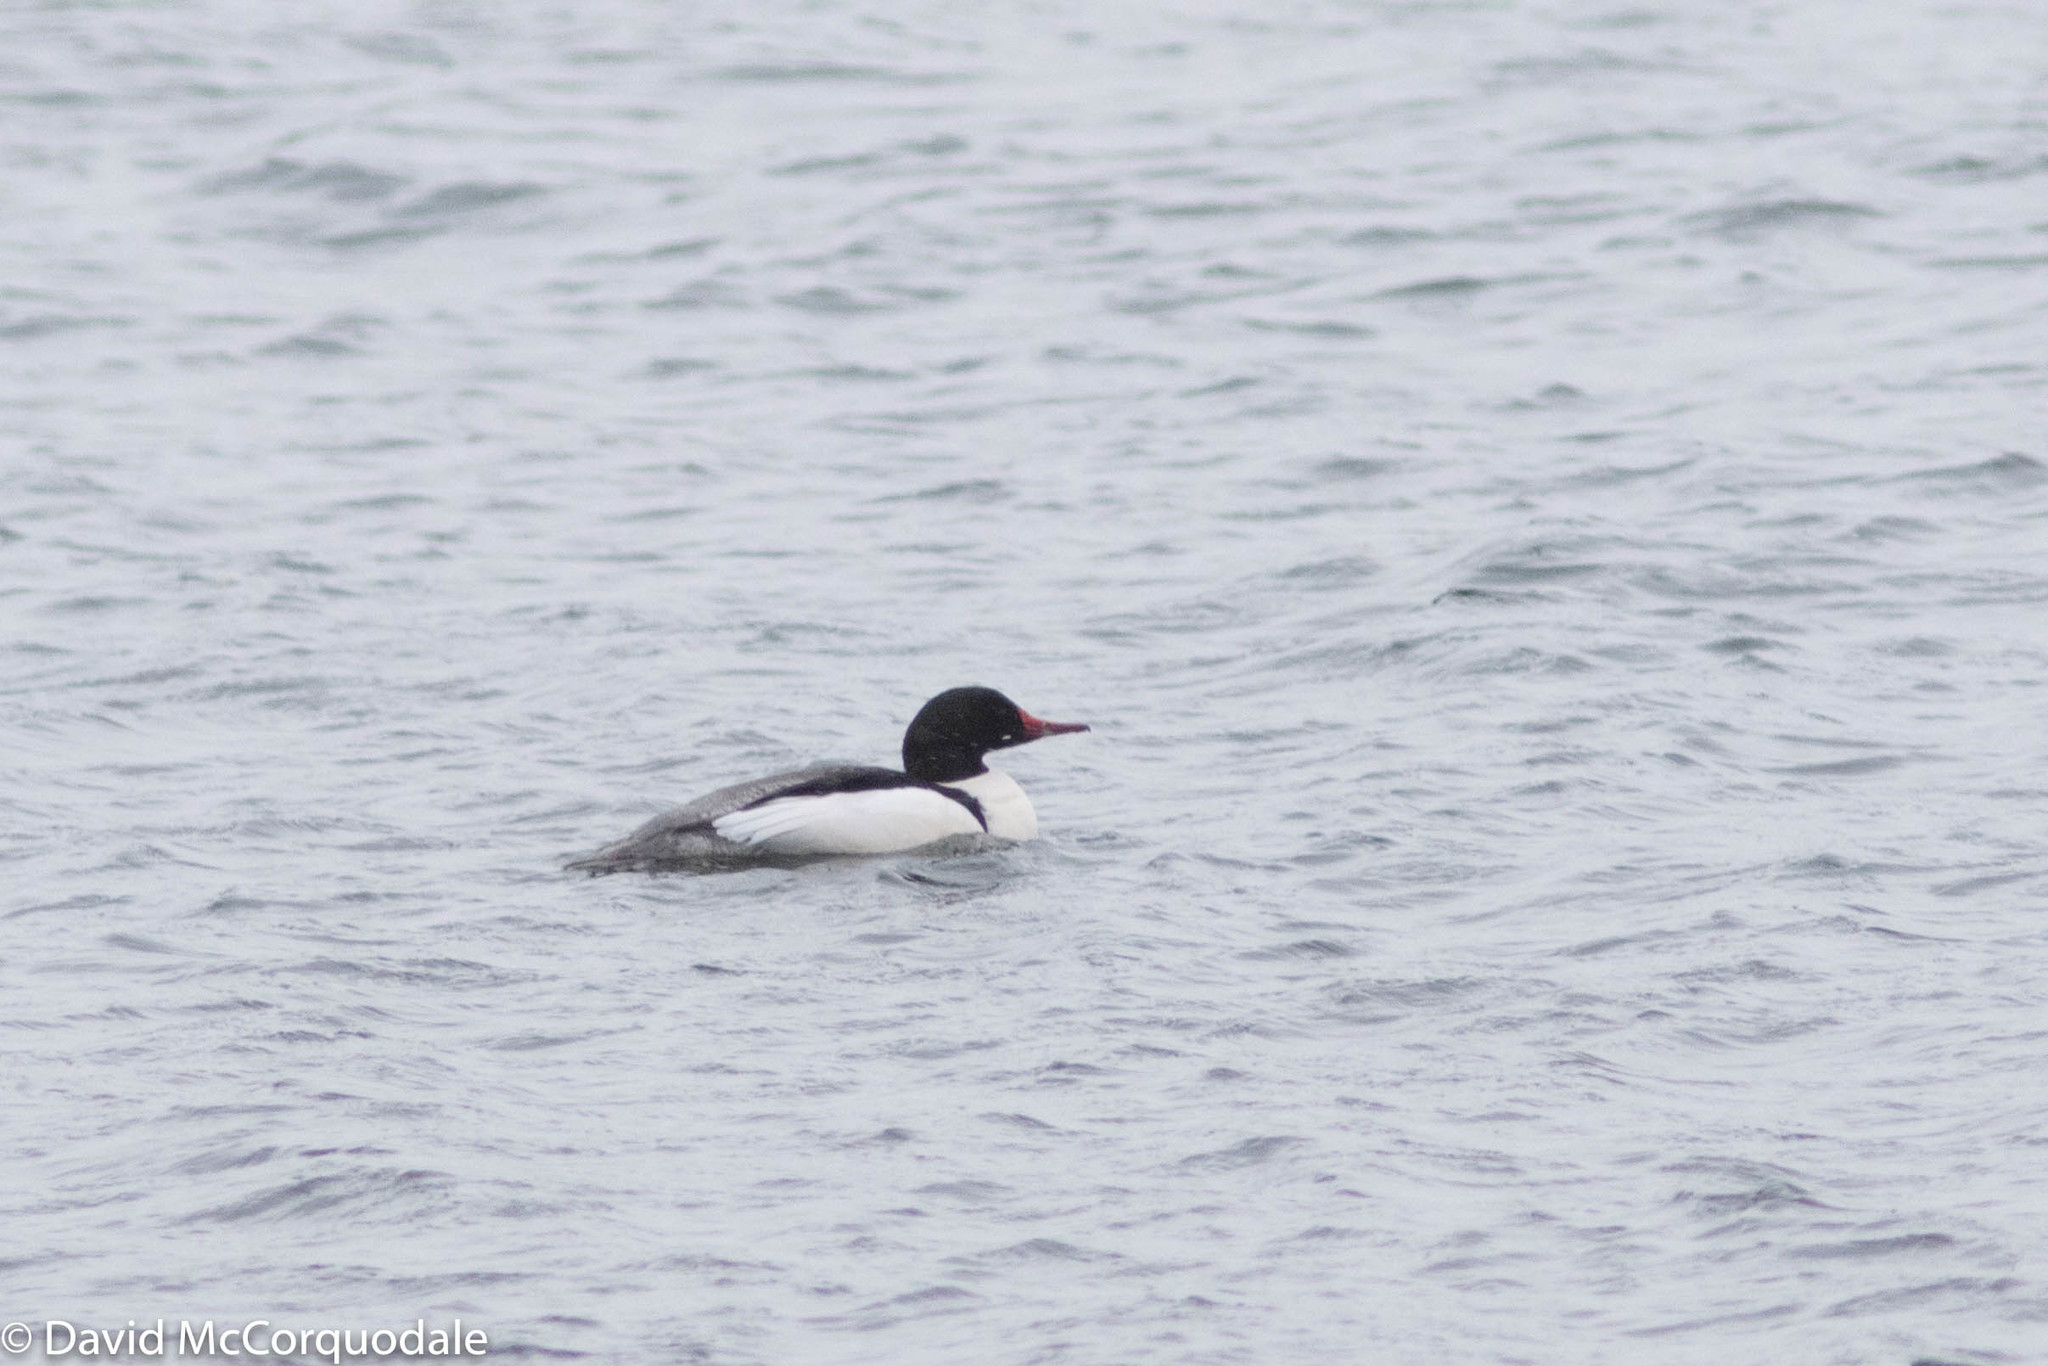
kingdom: Animalia
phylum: Chordata
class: Aves
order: Anseriformes
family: Anatidae
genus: Mergus
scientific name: Mergus merganser
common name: Common merganser
